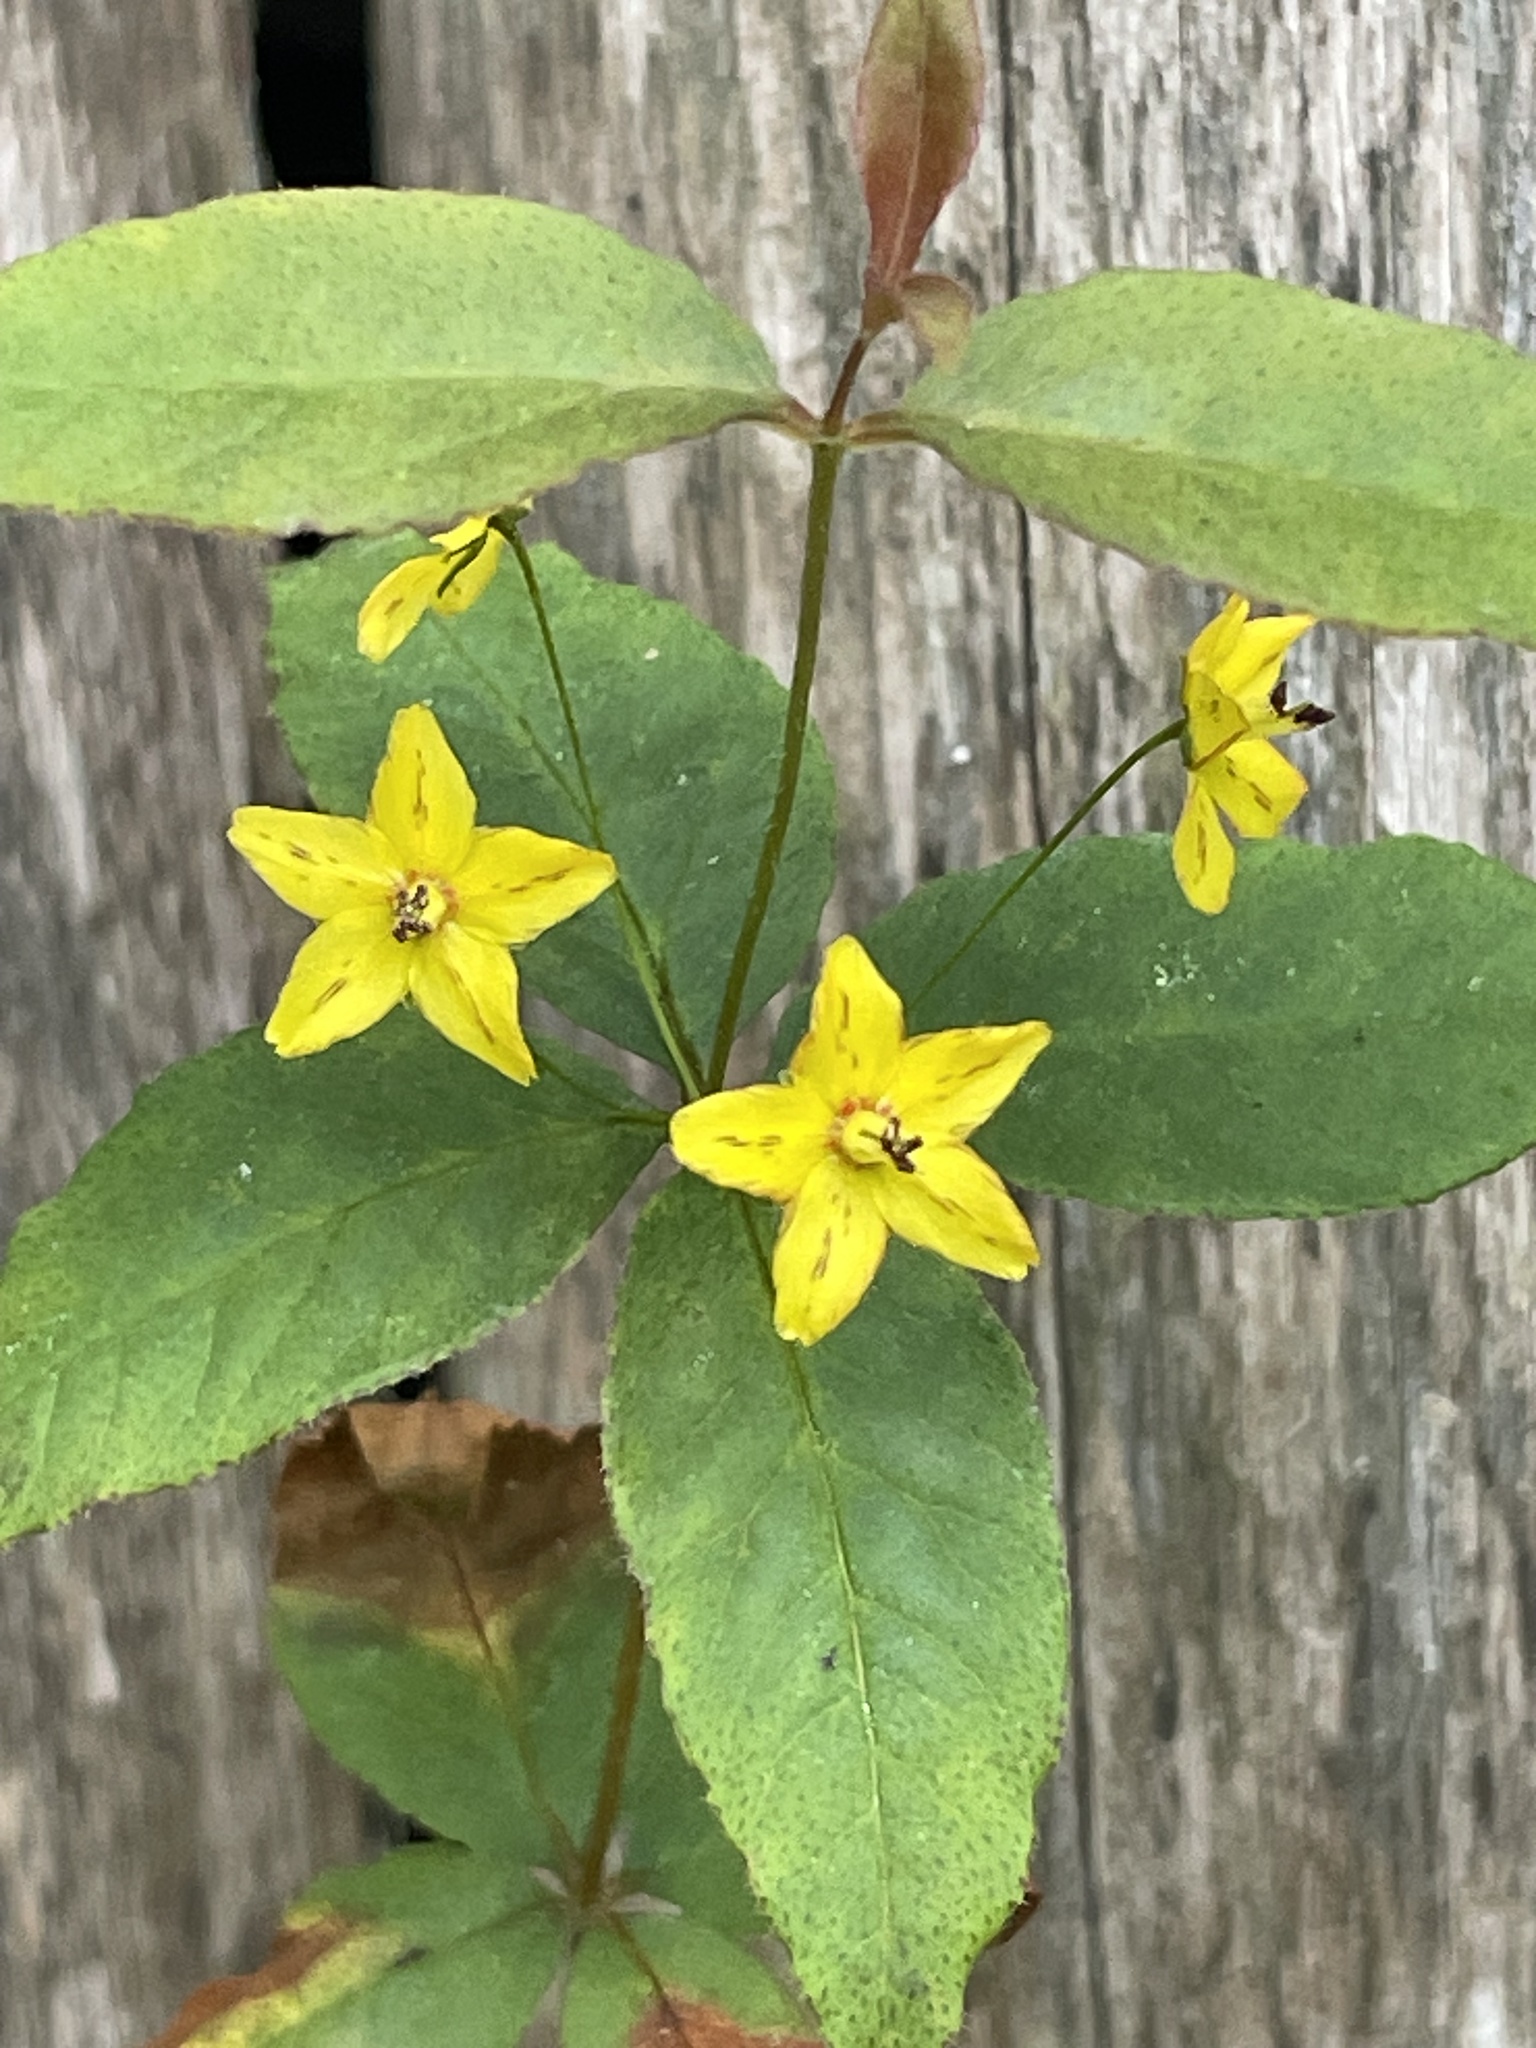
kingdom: Plantae
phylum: Tracheophyta
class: Magnoliopsida
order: Ericales
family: Primulaceae
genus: Lysimachia
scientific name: Lysimachia quadrifolia
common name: Whorled loosestrife
